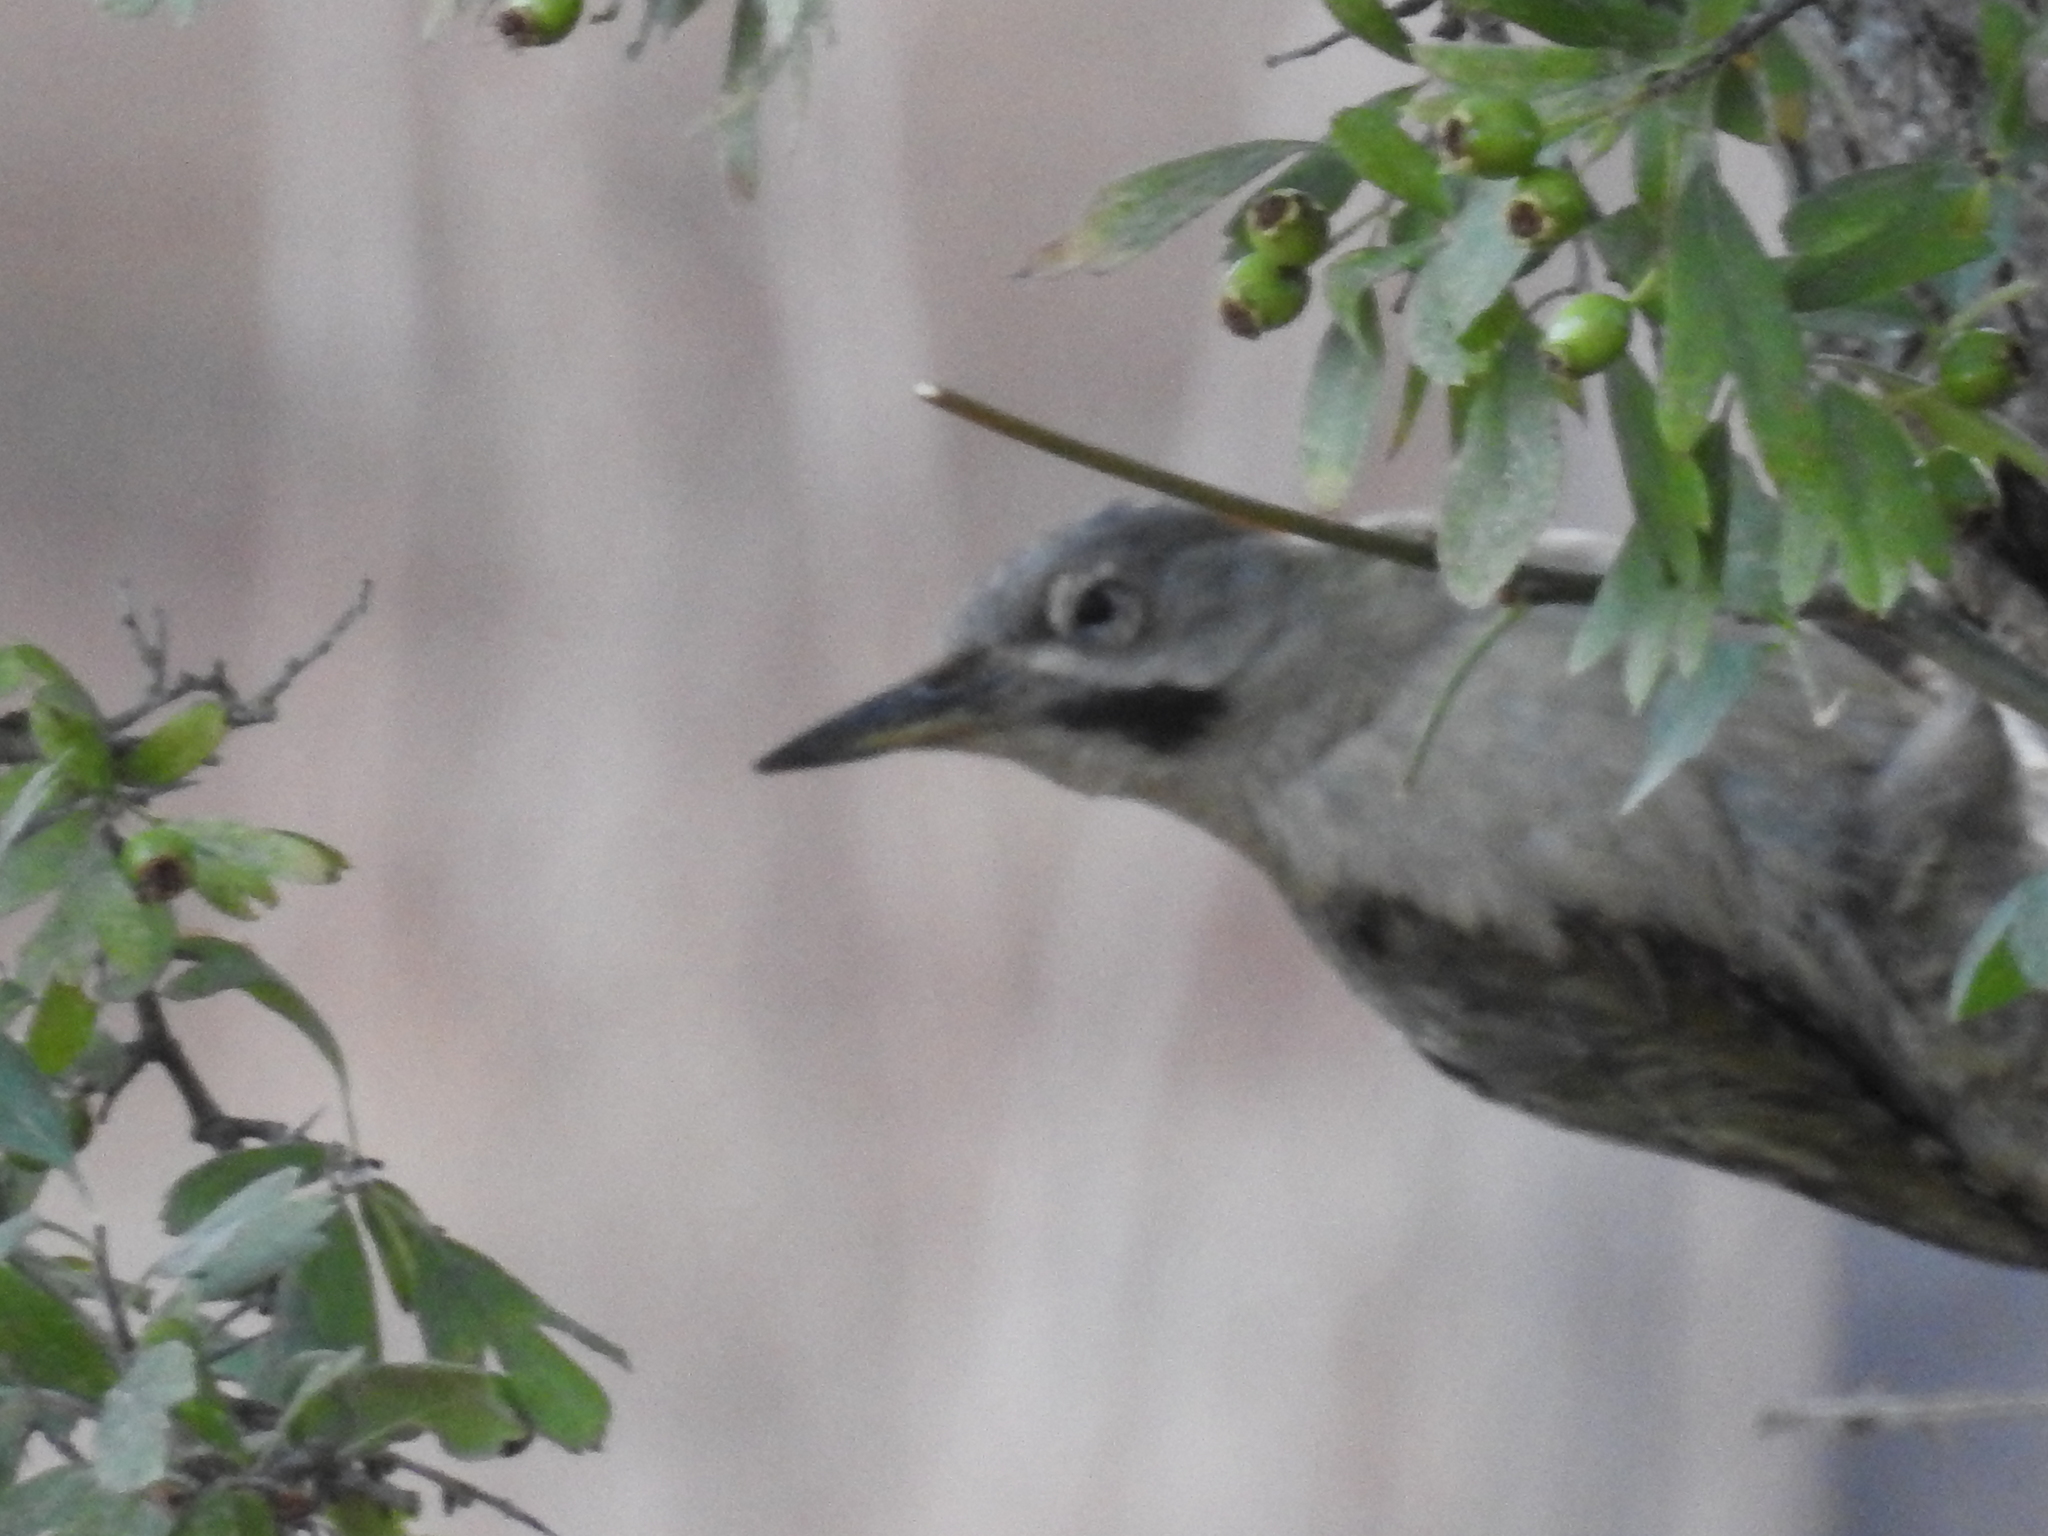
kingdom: Animalia
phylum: Chordata
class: Aves
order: Piciformes
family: Picidae
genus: Picus
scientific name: Picus vaillantii
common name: Levaillant's woodpecker
